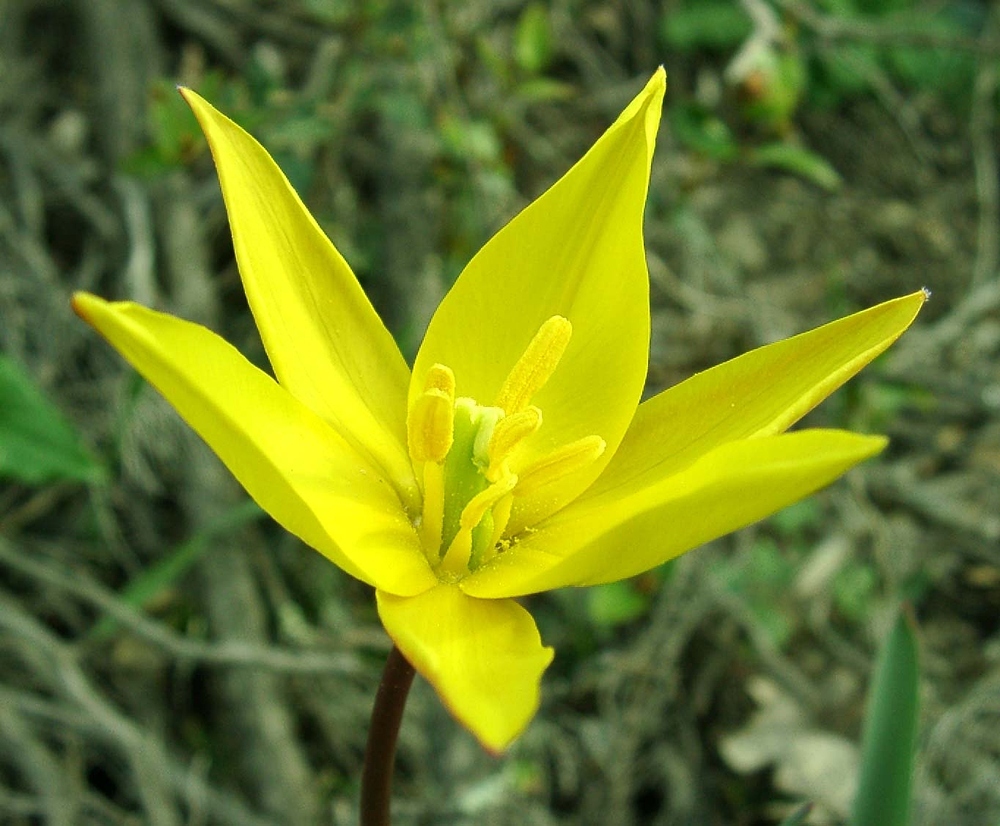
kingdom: Plantae
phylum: Tracheophyta
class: Liliopsida
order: Liliales
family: Liliaceae
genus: Tulipa
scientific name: Tulipa sylvestris
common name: Wild tulip
